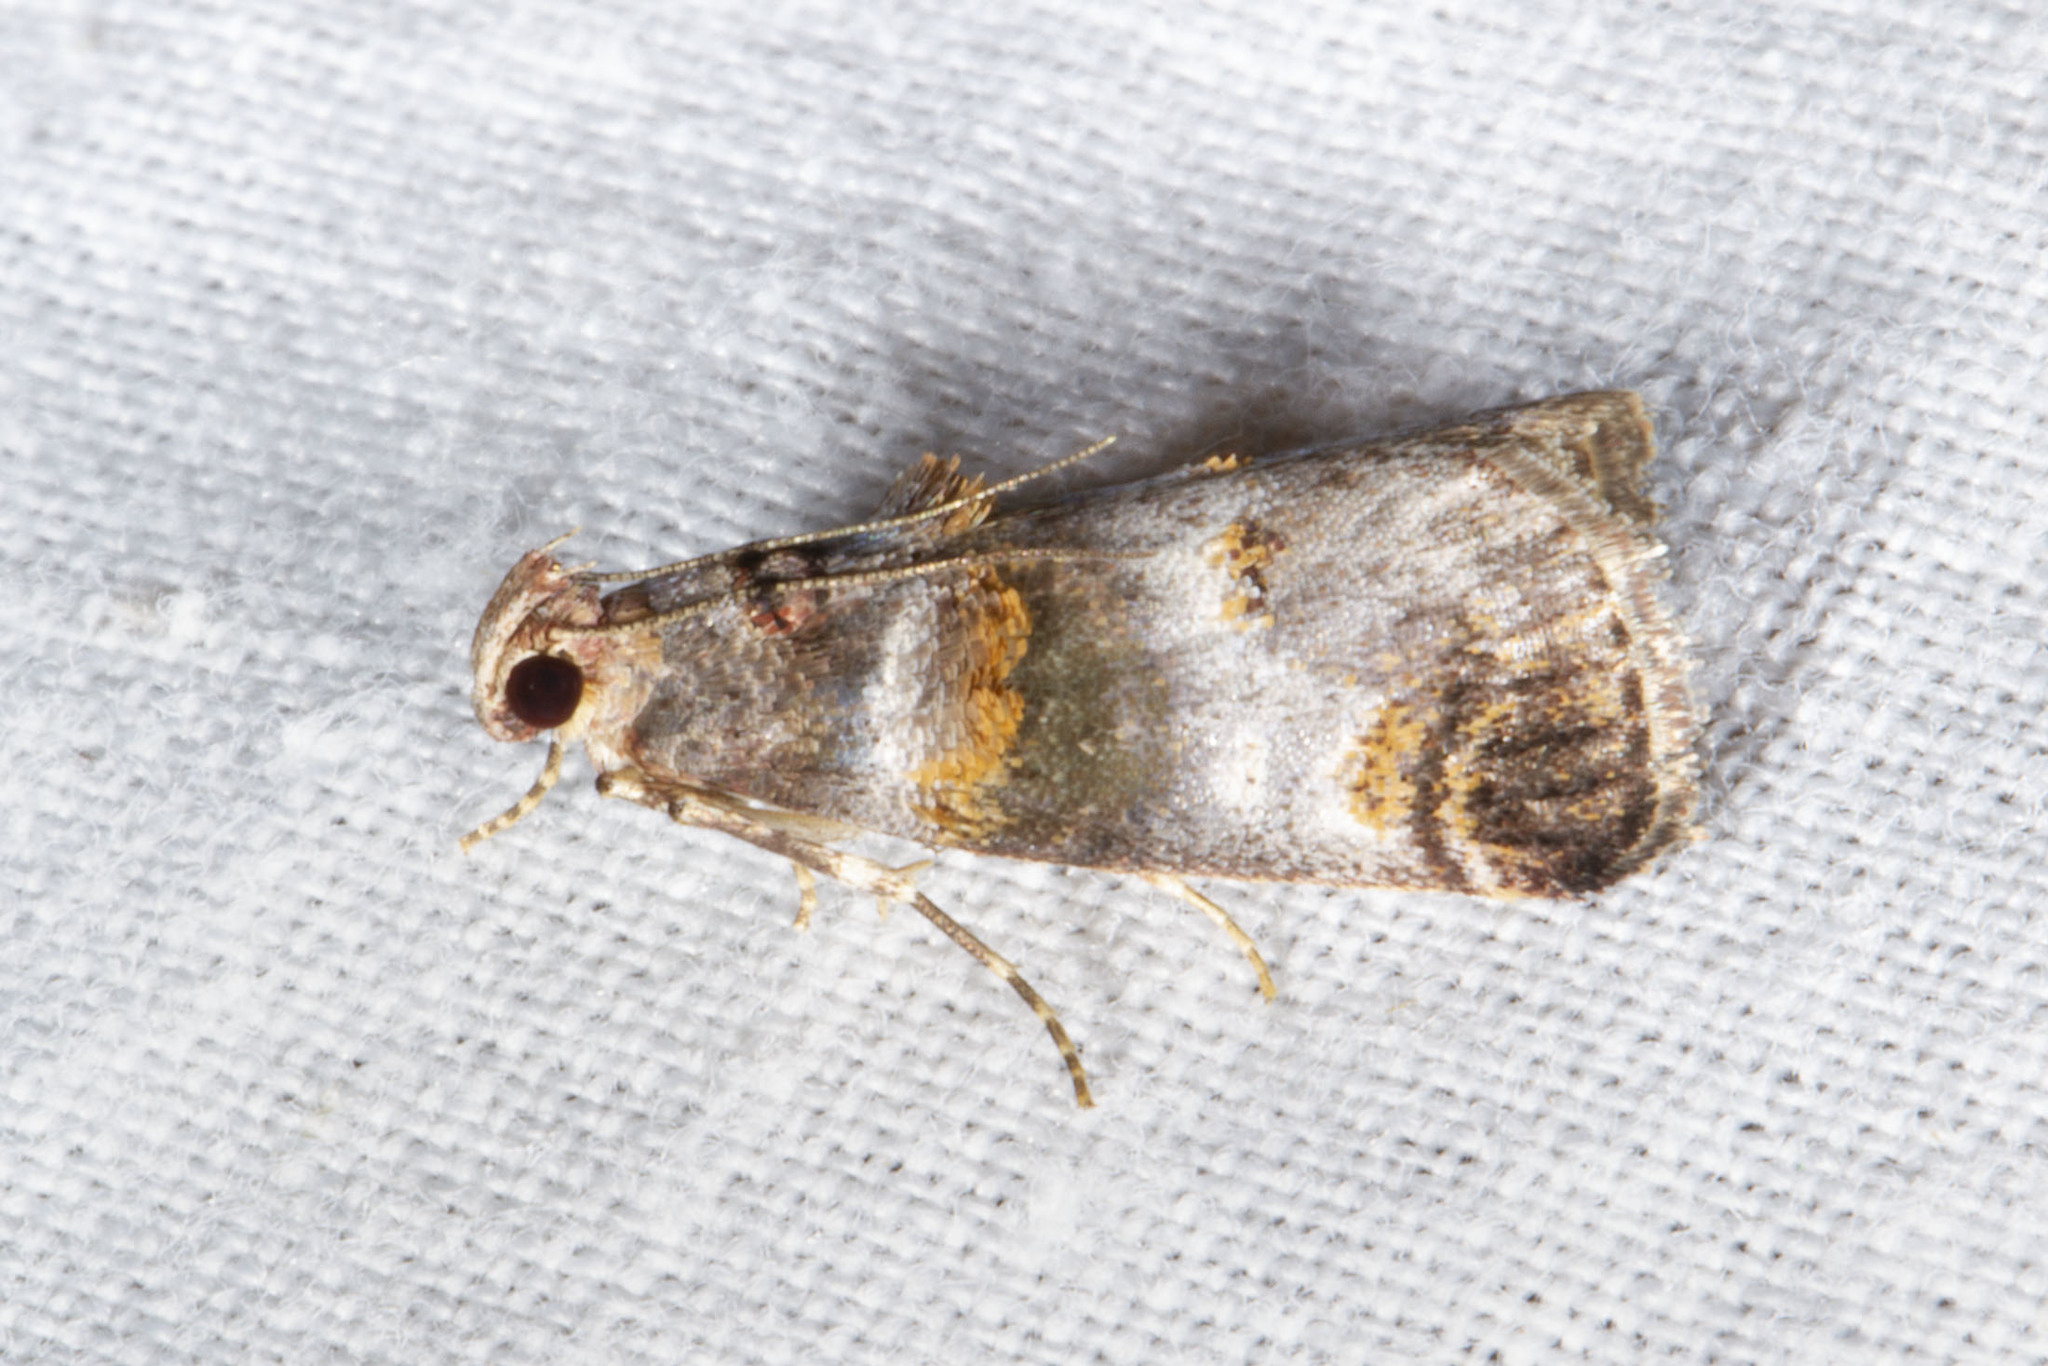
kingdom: Animalia
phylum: Arthropoda
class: Insecta
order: Lepidoptera
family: Pyralidae
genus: Oneida
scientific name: Oneida lunulalis
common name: Orange-tufted oneida moth
